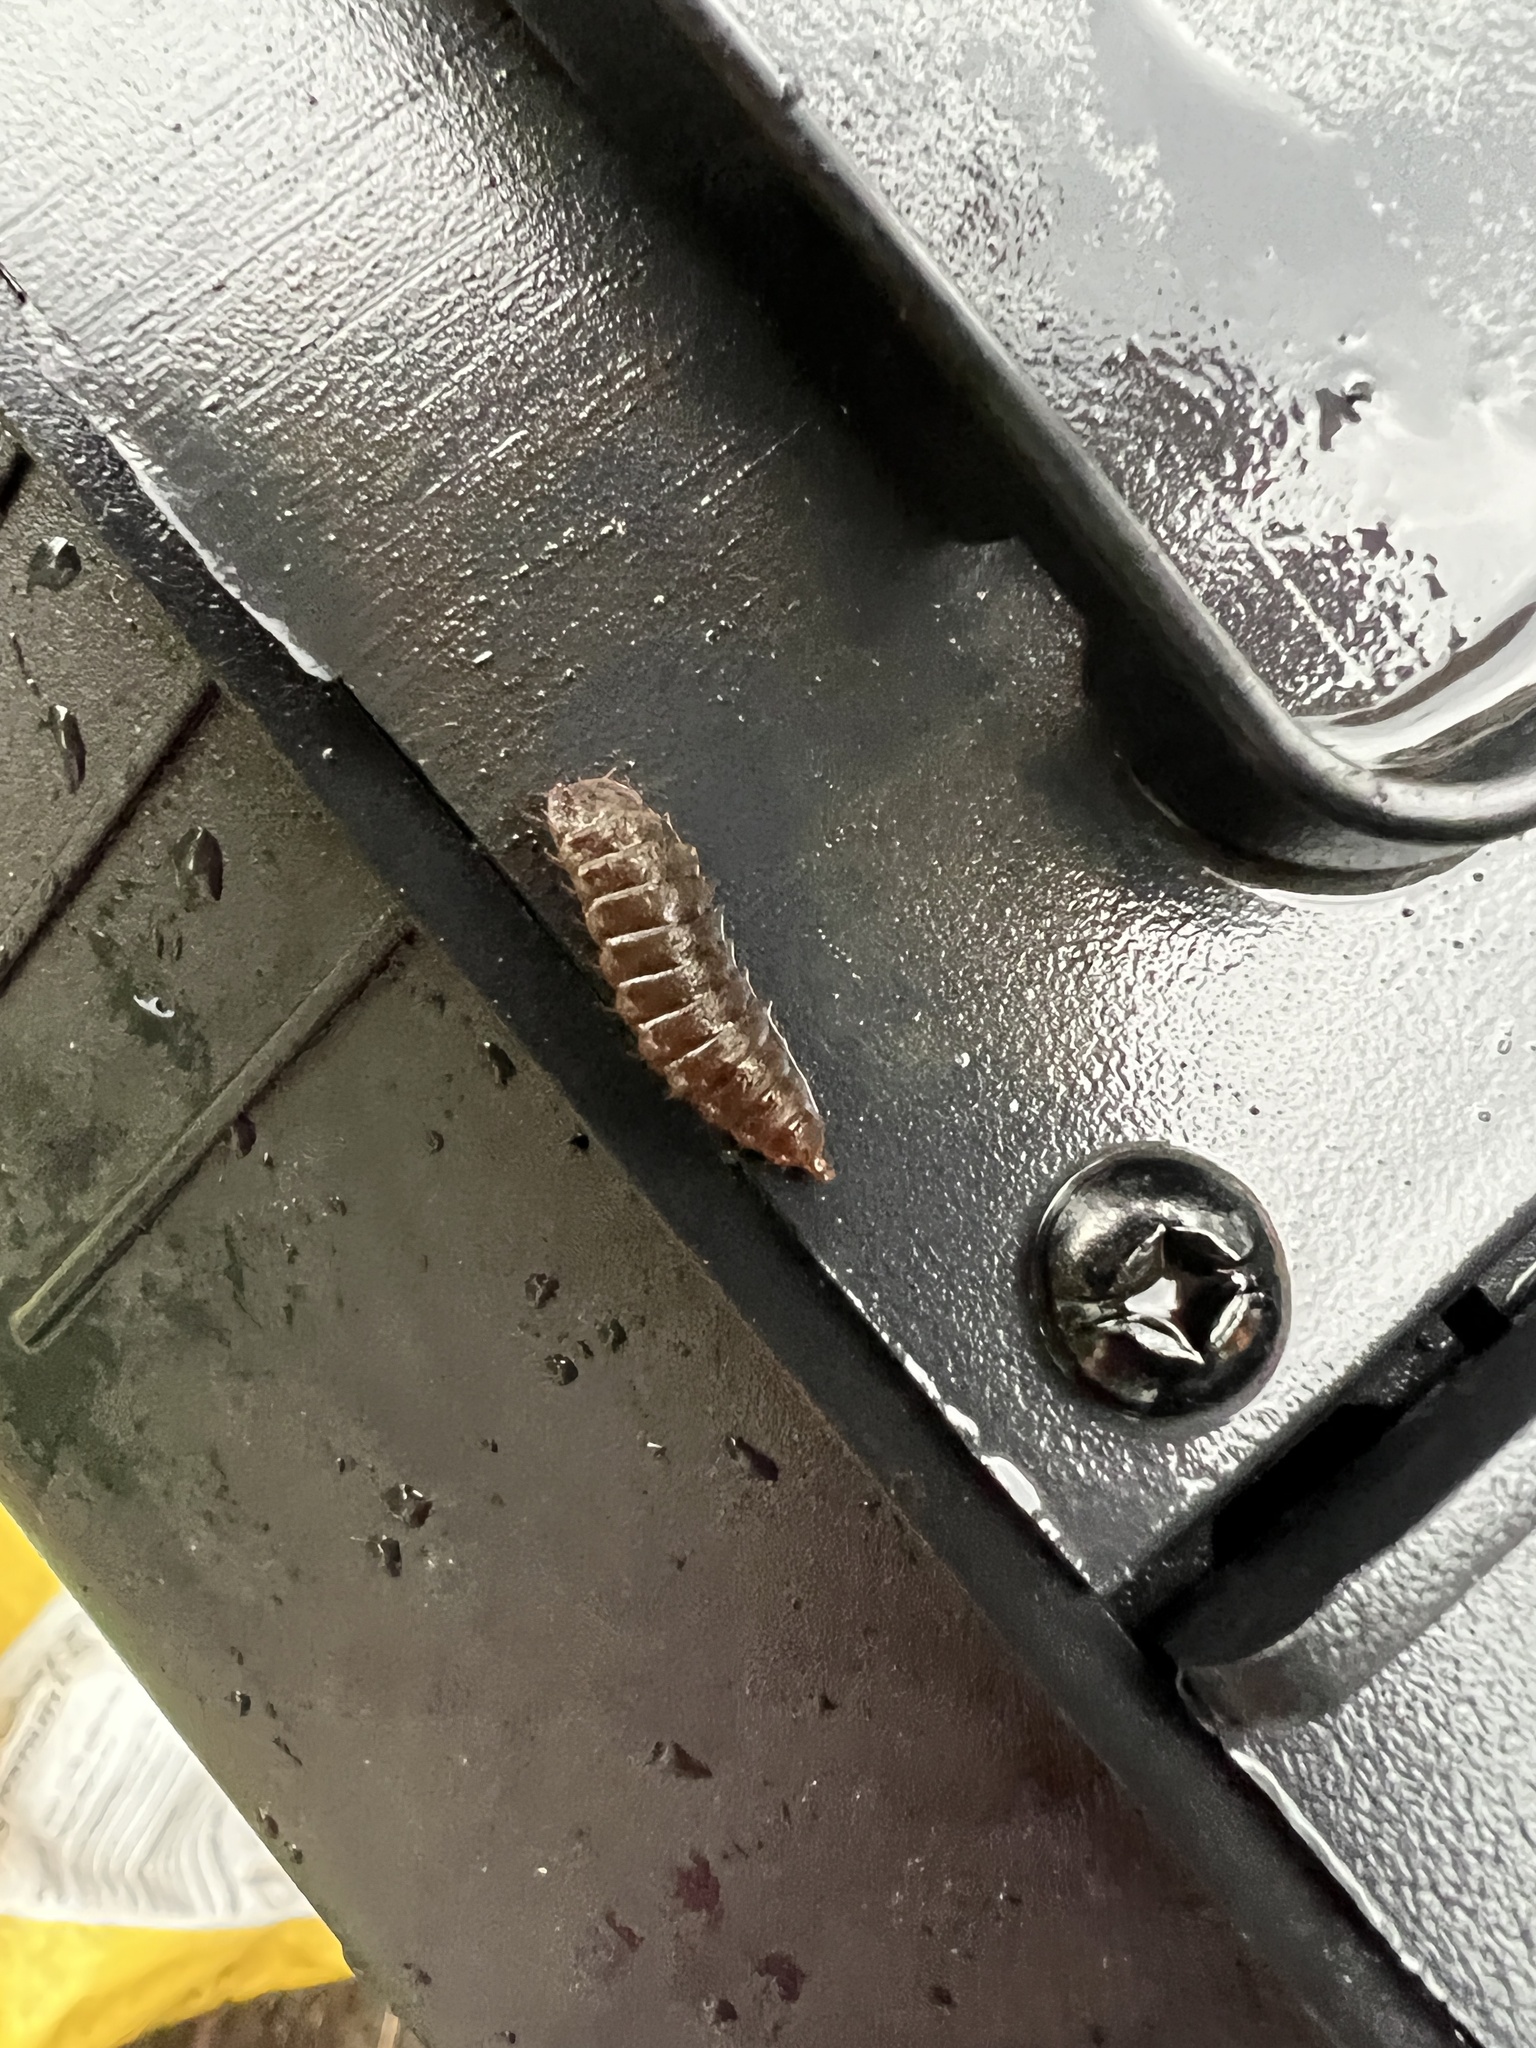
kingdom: Animalia
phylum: Arthropoda
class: Insecta
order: Diptera
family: Stratiomyidae
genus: Hermetia
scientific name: Hermetia illucens
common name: Black soldier fly
